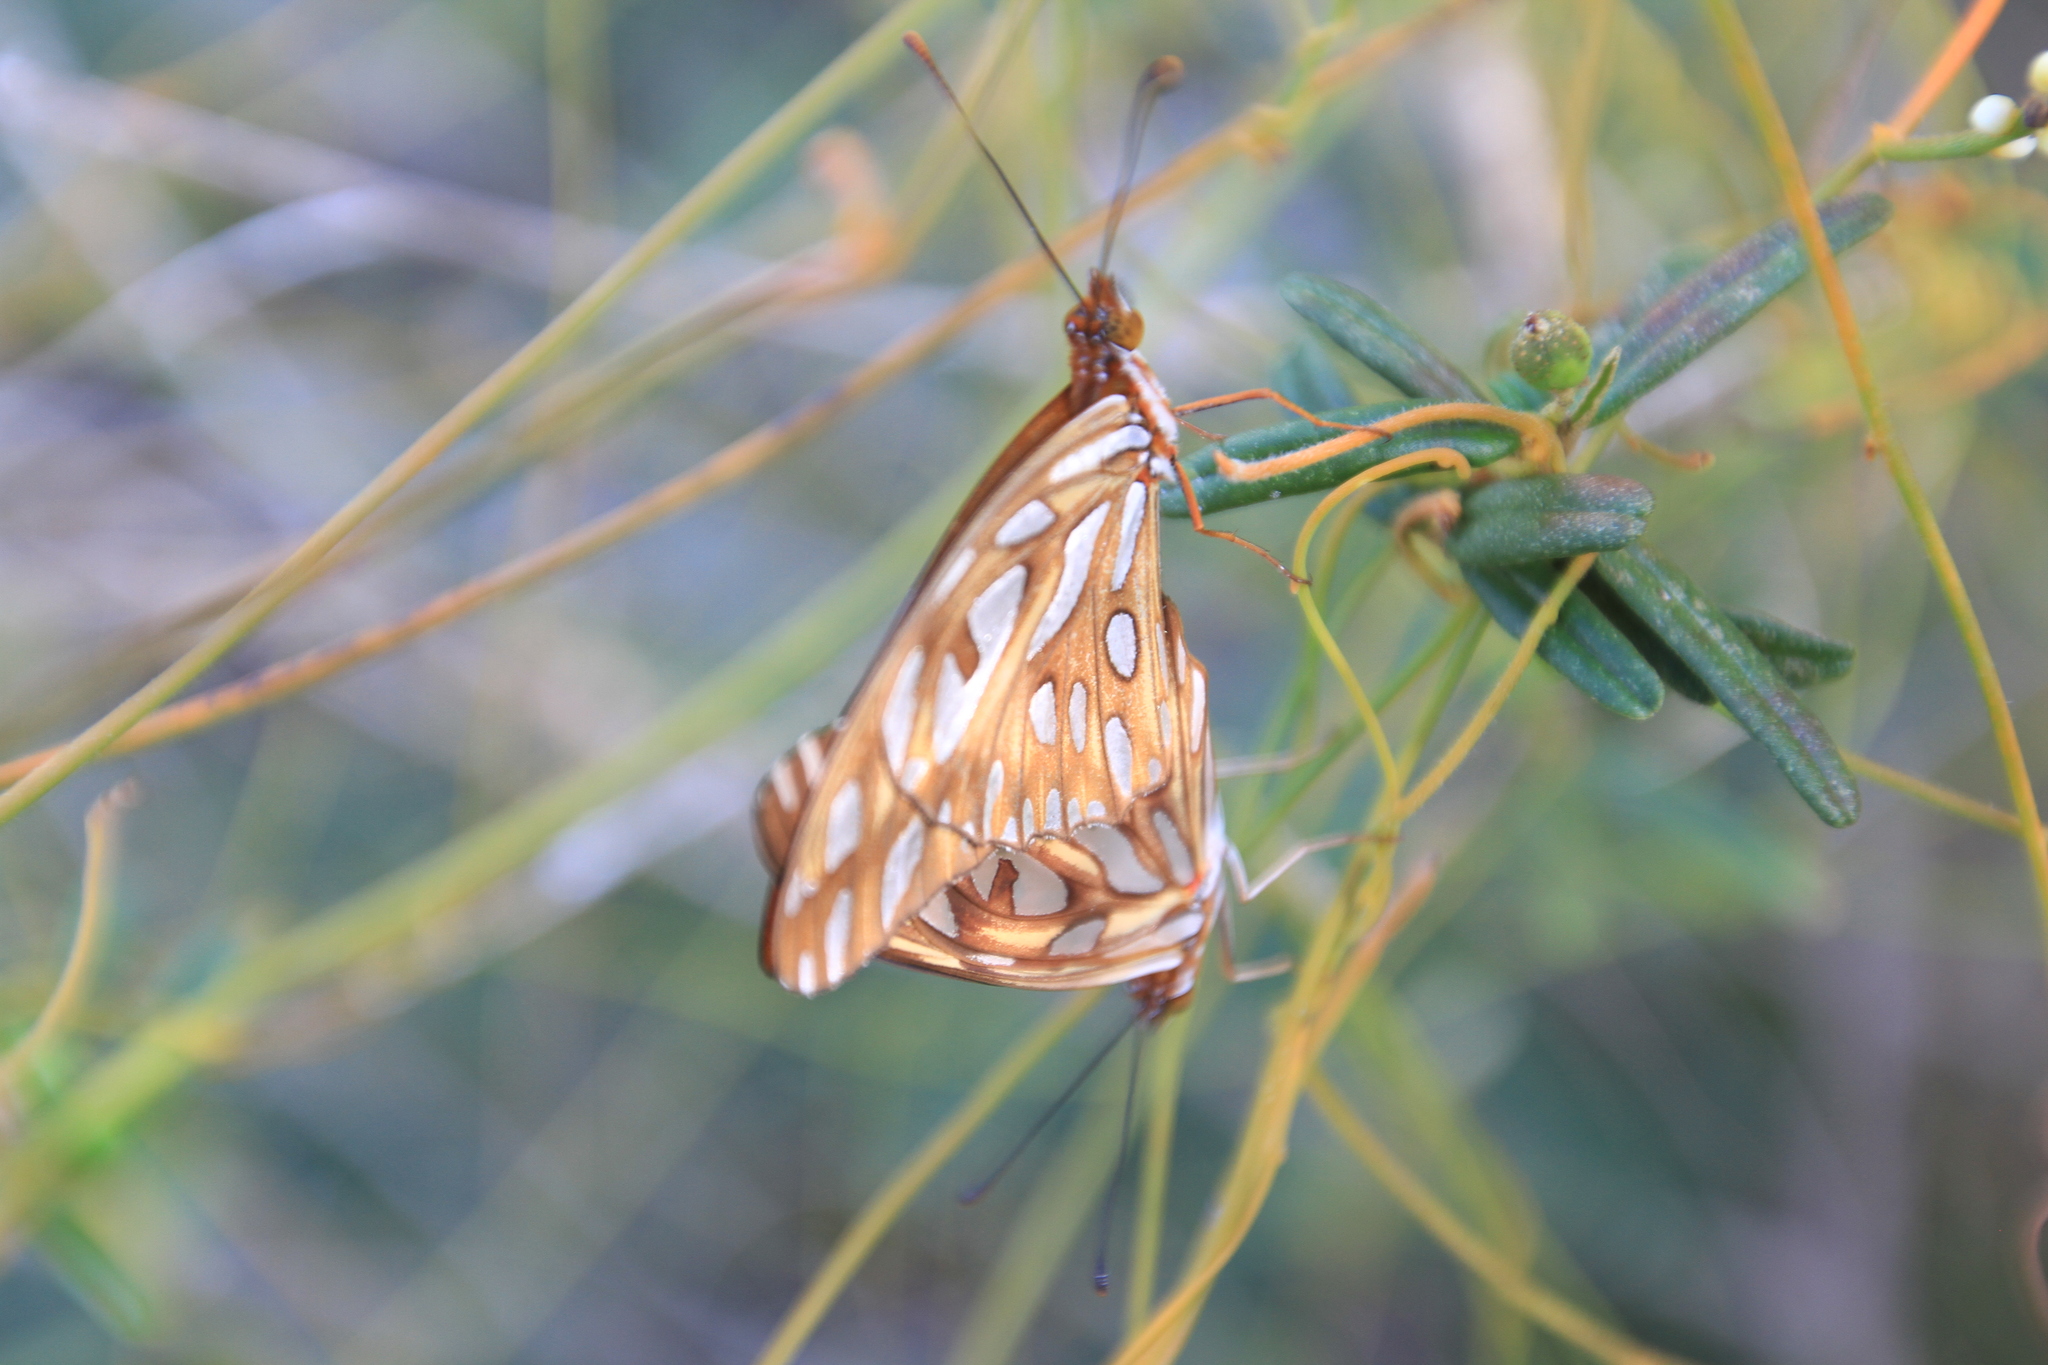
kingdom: Animalia
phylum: Arthropoda
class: Insecta
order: Lepidoptera
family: Nymphalidae
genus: Dione
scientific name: Dione vanillae
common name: Gulf fritillary
